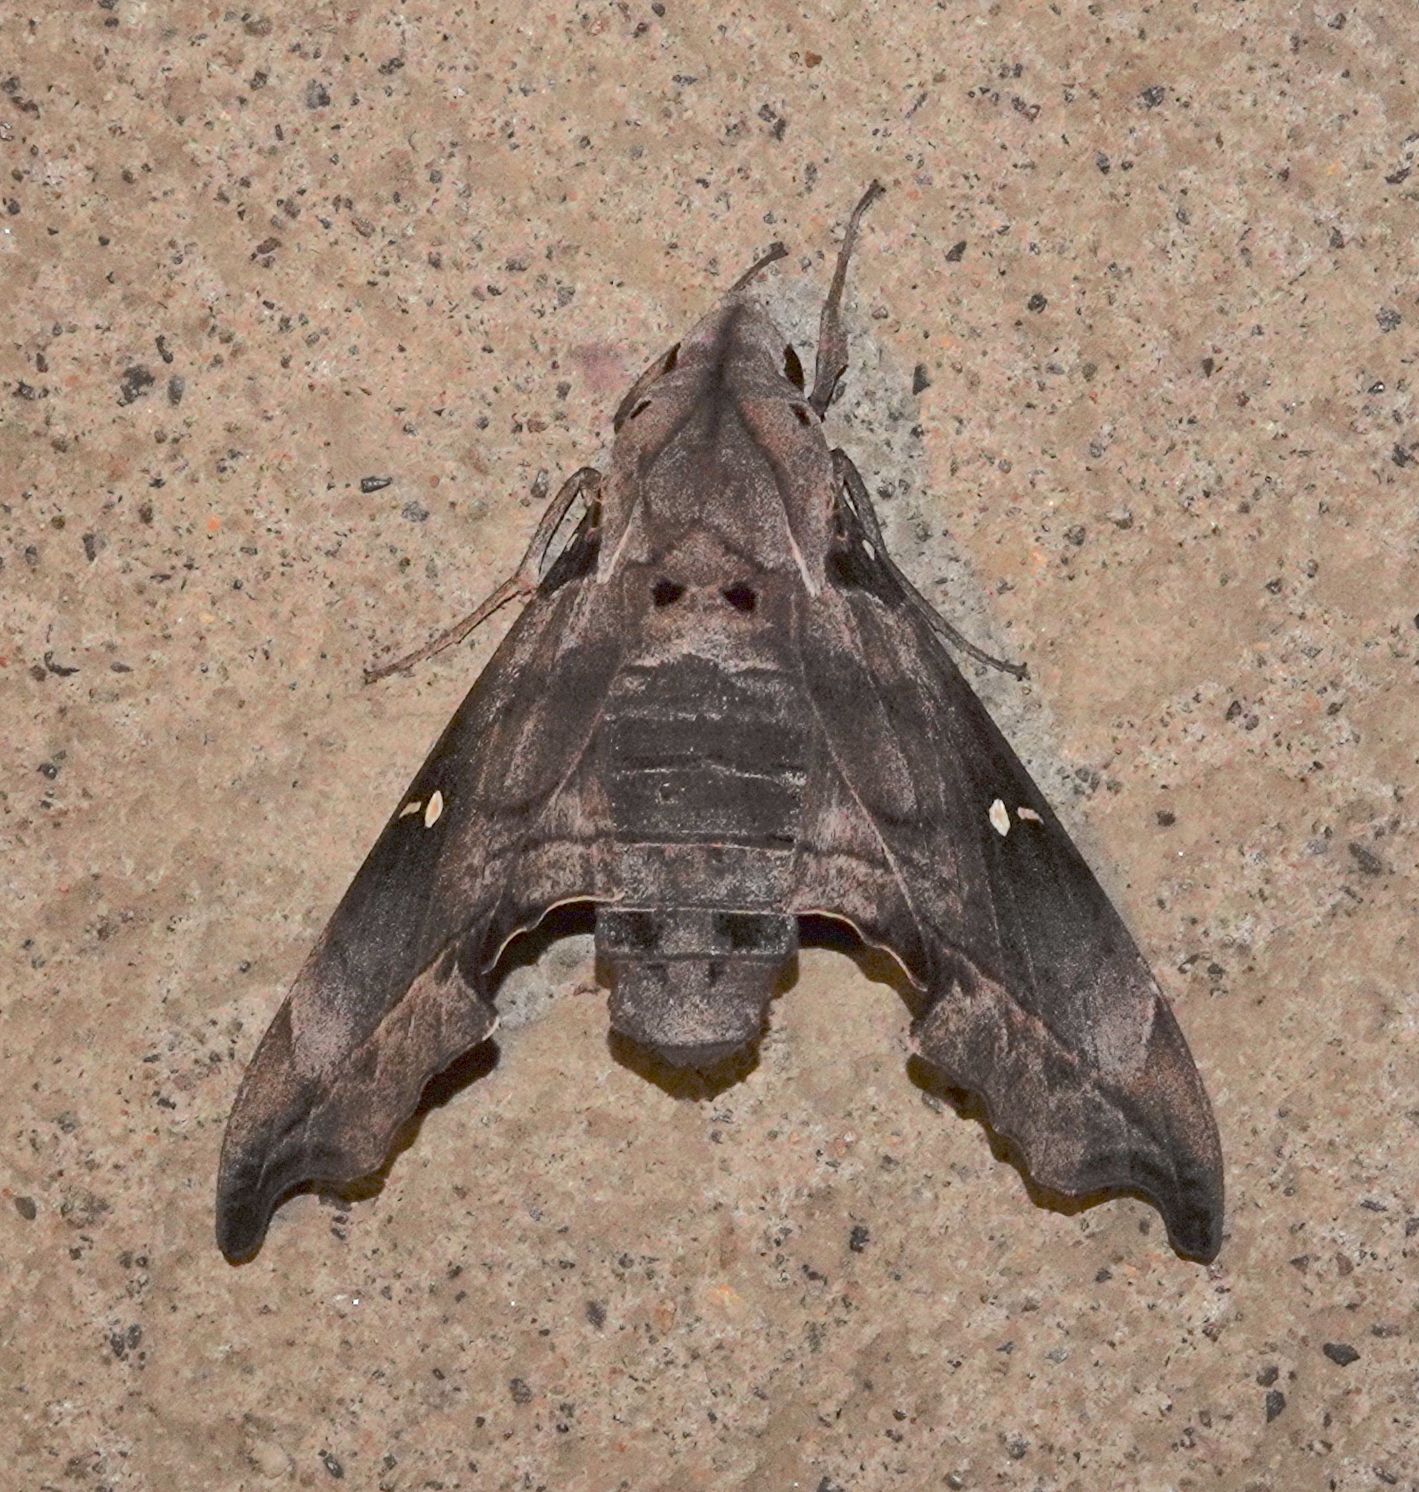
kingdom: Animalia
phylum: Arthropoda
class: Insecta
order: Lepidoptera
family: Sphingidae
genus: Madoryx
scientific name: Madoryx oiclus
